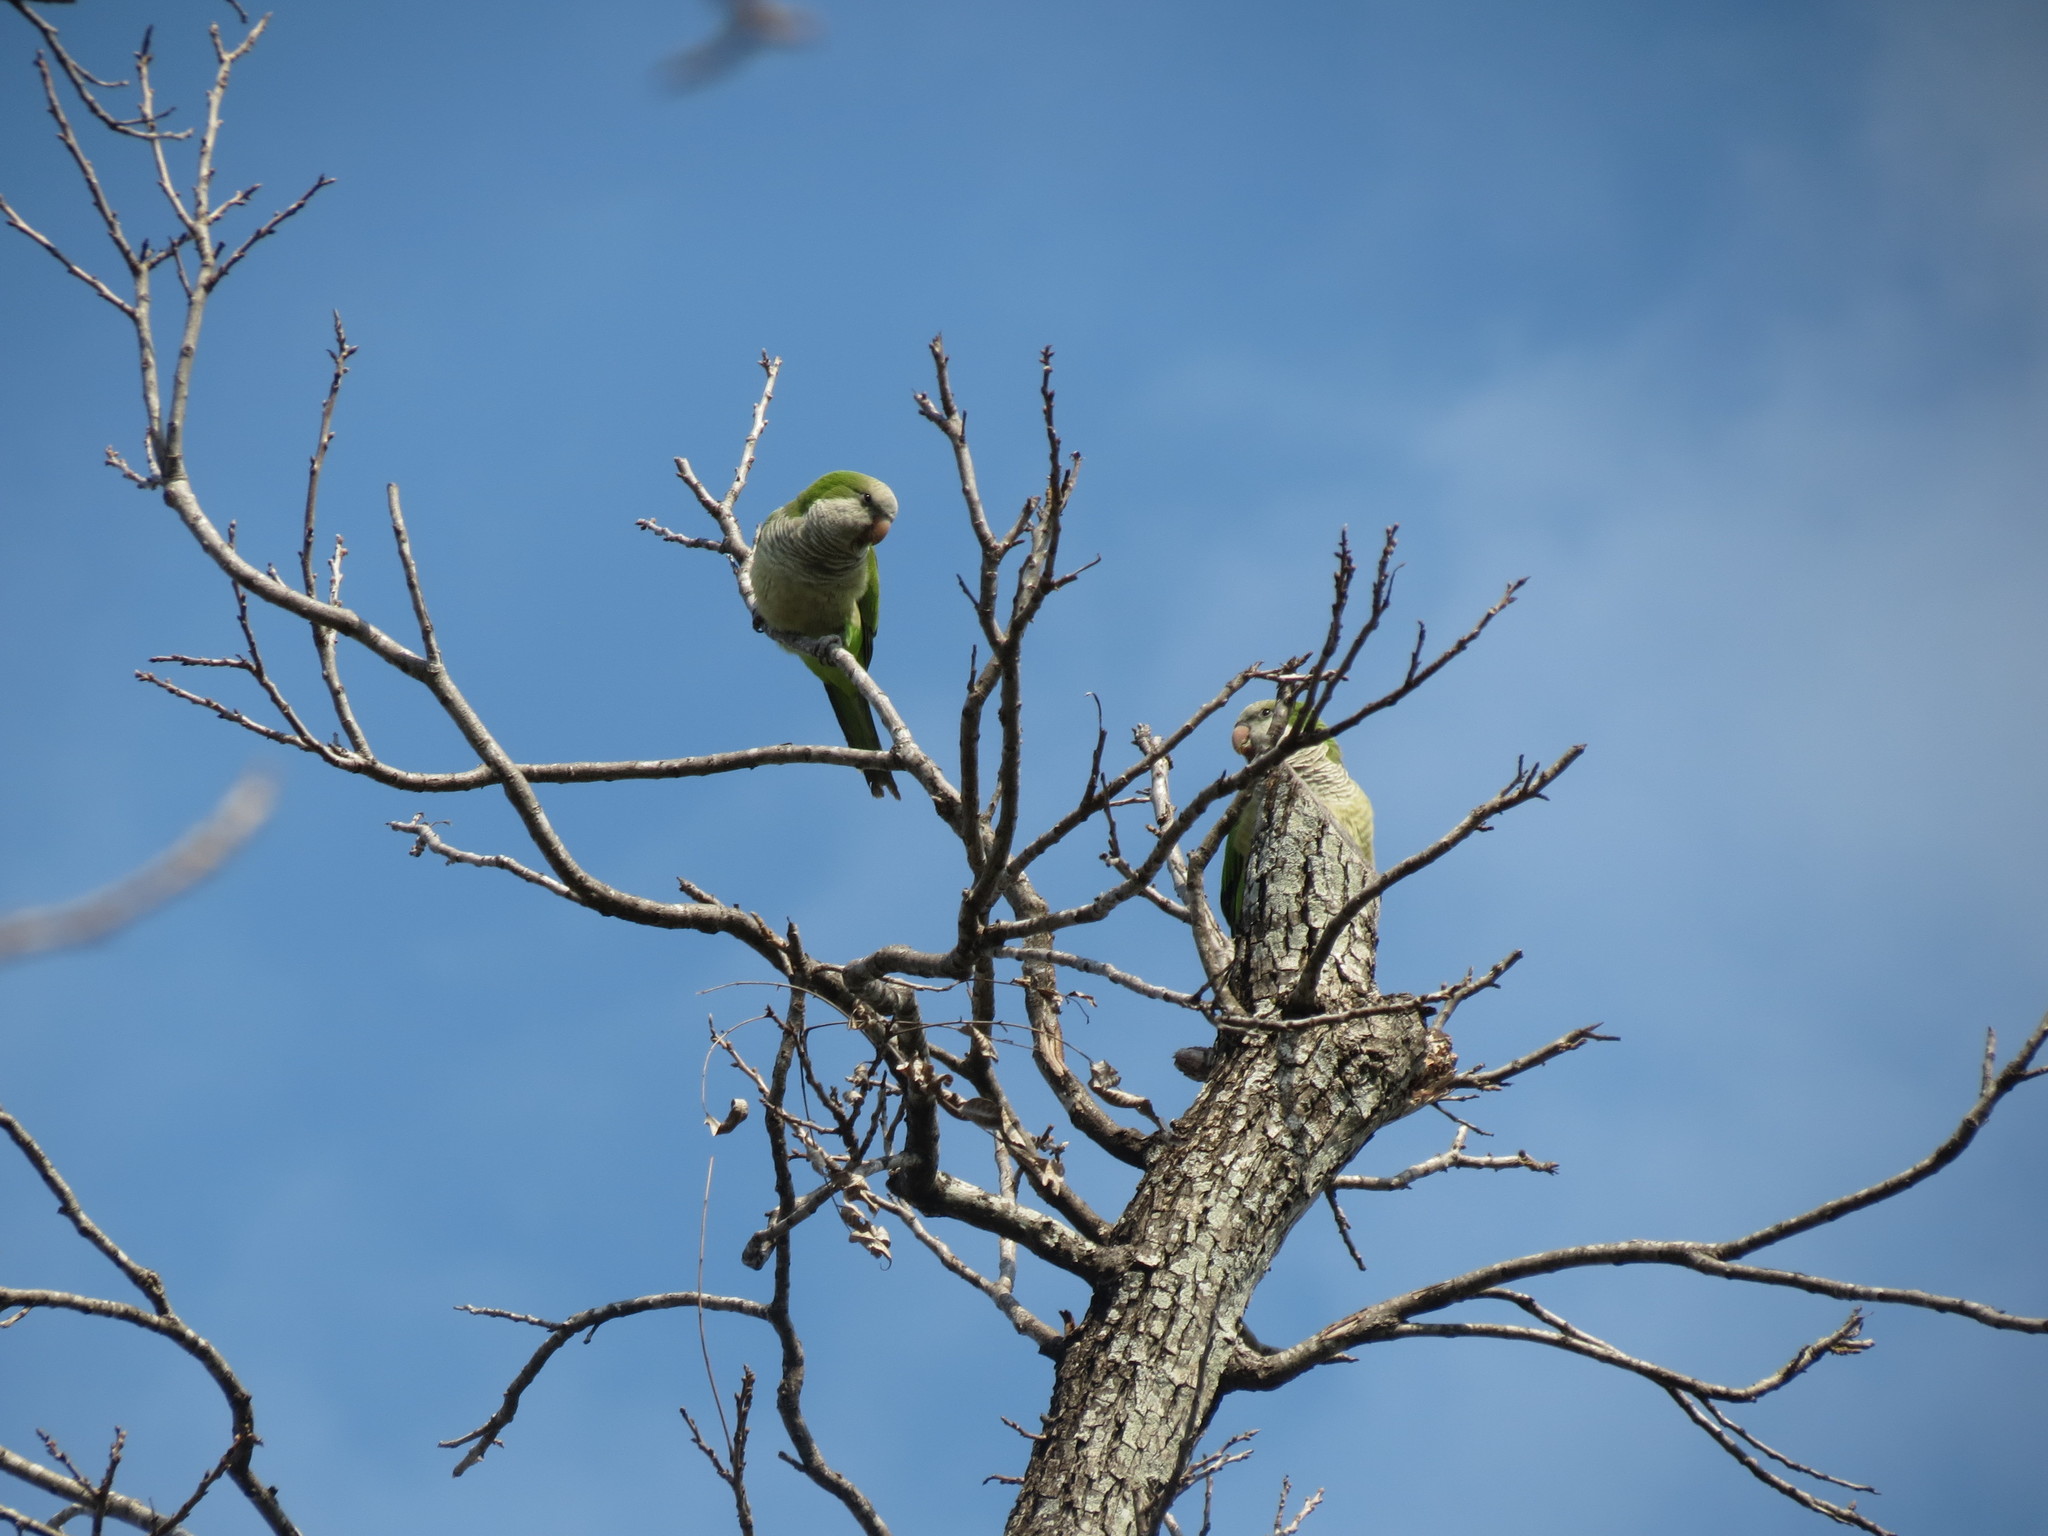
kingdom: Animalia
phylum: Chordata
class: Aves
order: Psittaciformes
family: Psittacidae
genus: Myiopsitta
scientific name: Myiopsitta monachus
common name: Monk parakeet
